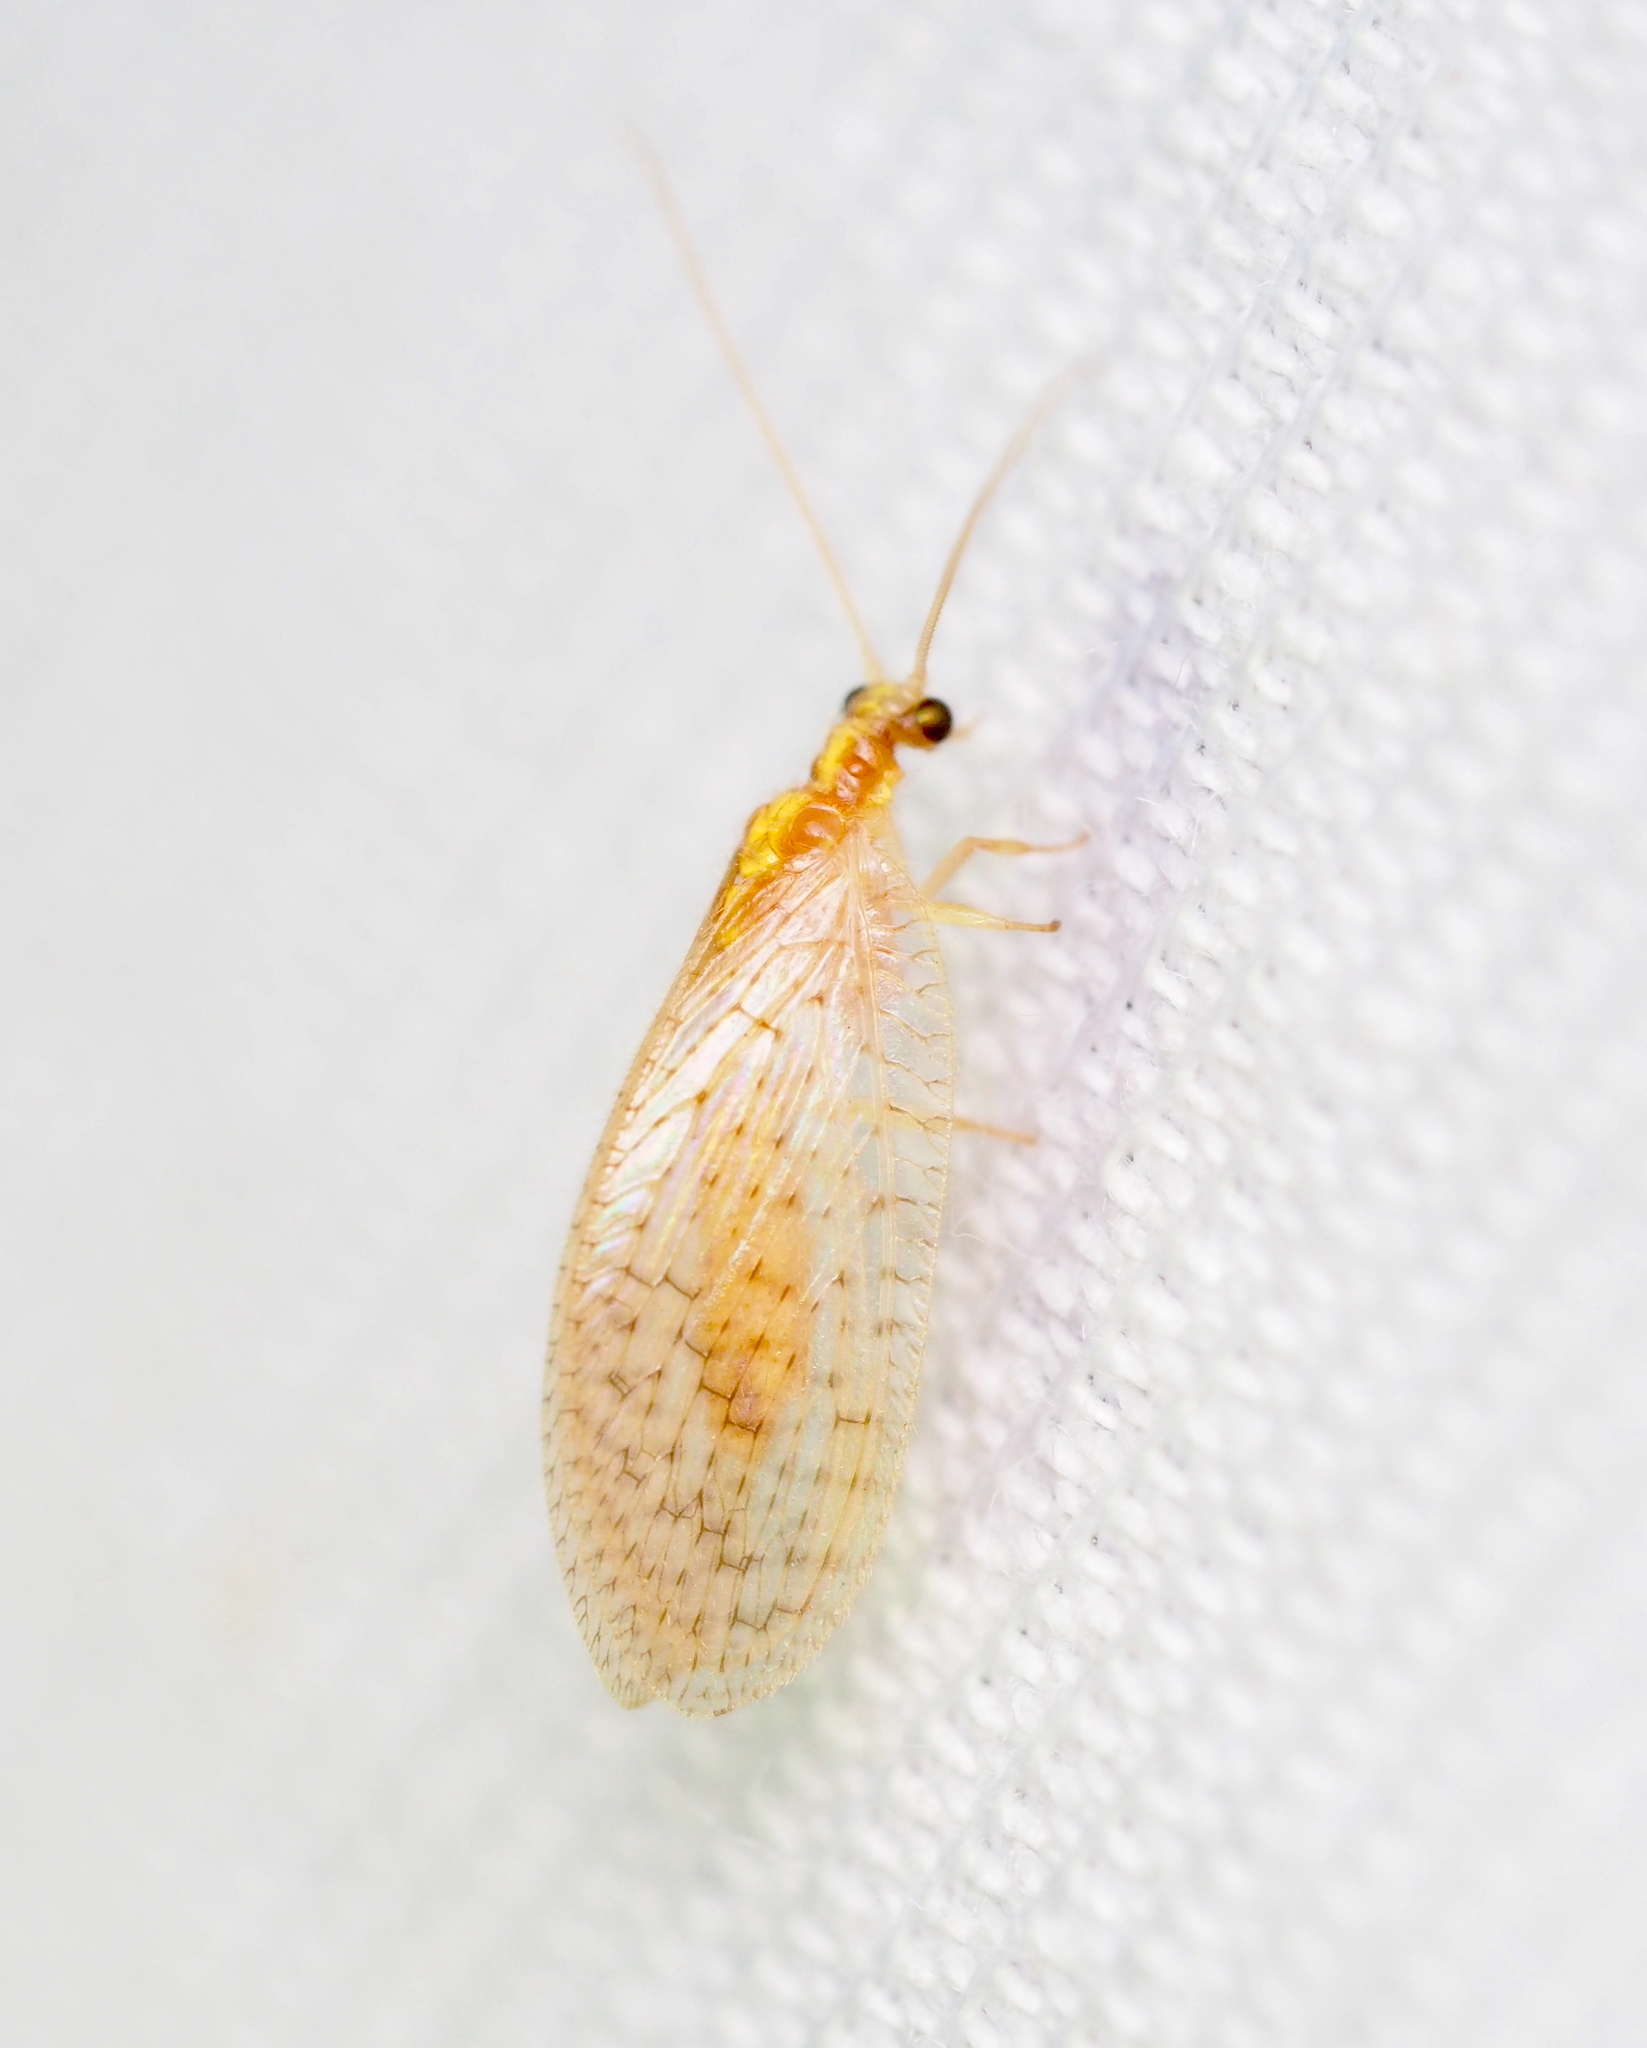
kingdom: Animalia
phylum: Arthropoda
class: Insecta
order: Neuroptera
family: Hemerobiidae
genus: Hemerobius
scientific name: Hemerobius micans
